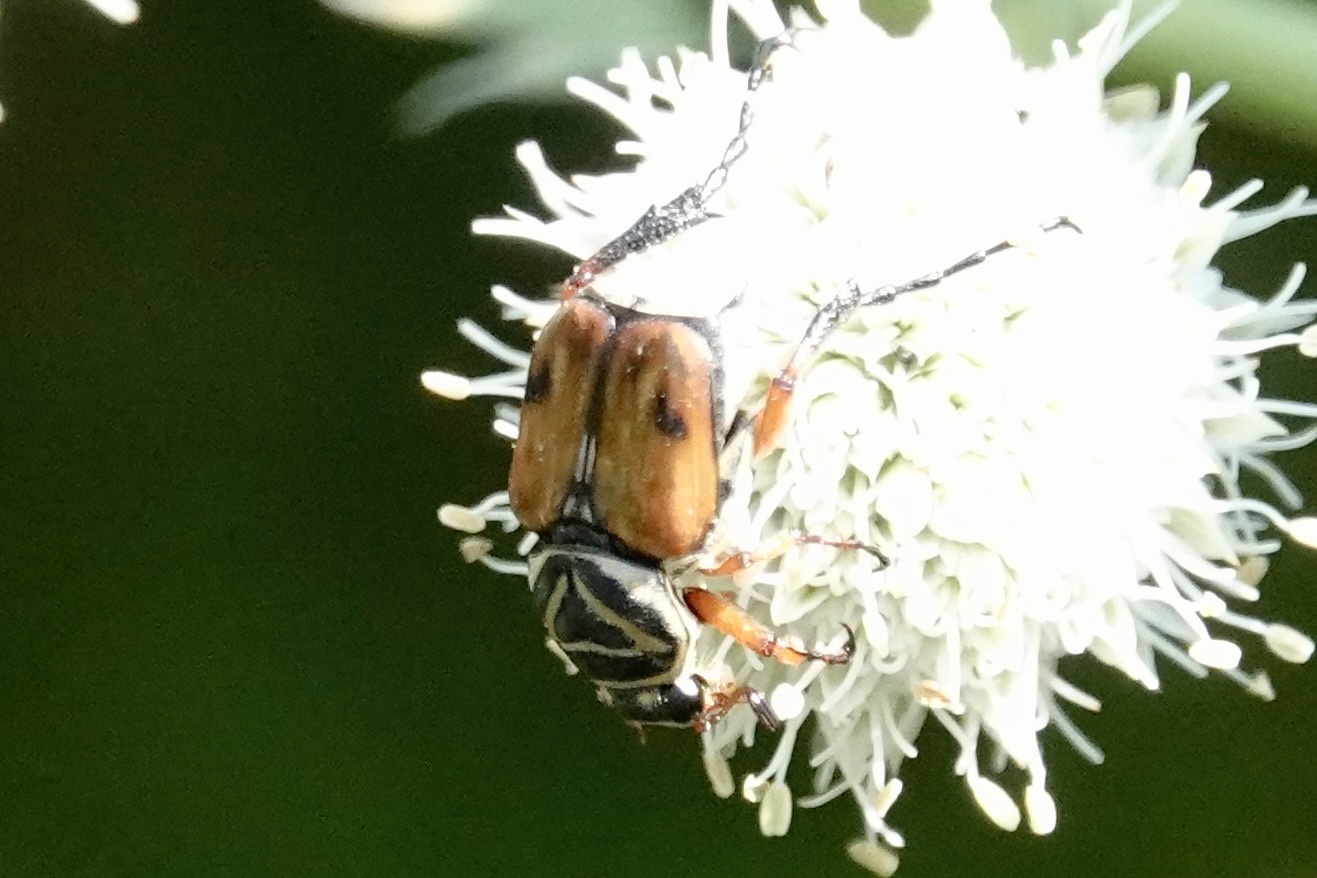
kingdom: Animalia
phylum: Arthropoda
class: Insecta
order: Coleoptera
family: Scarabaeidae
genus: Trigonopeltastes
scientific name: Trigonopeltastes delta
